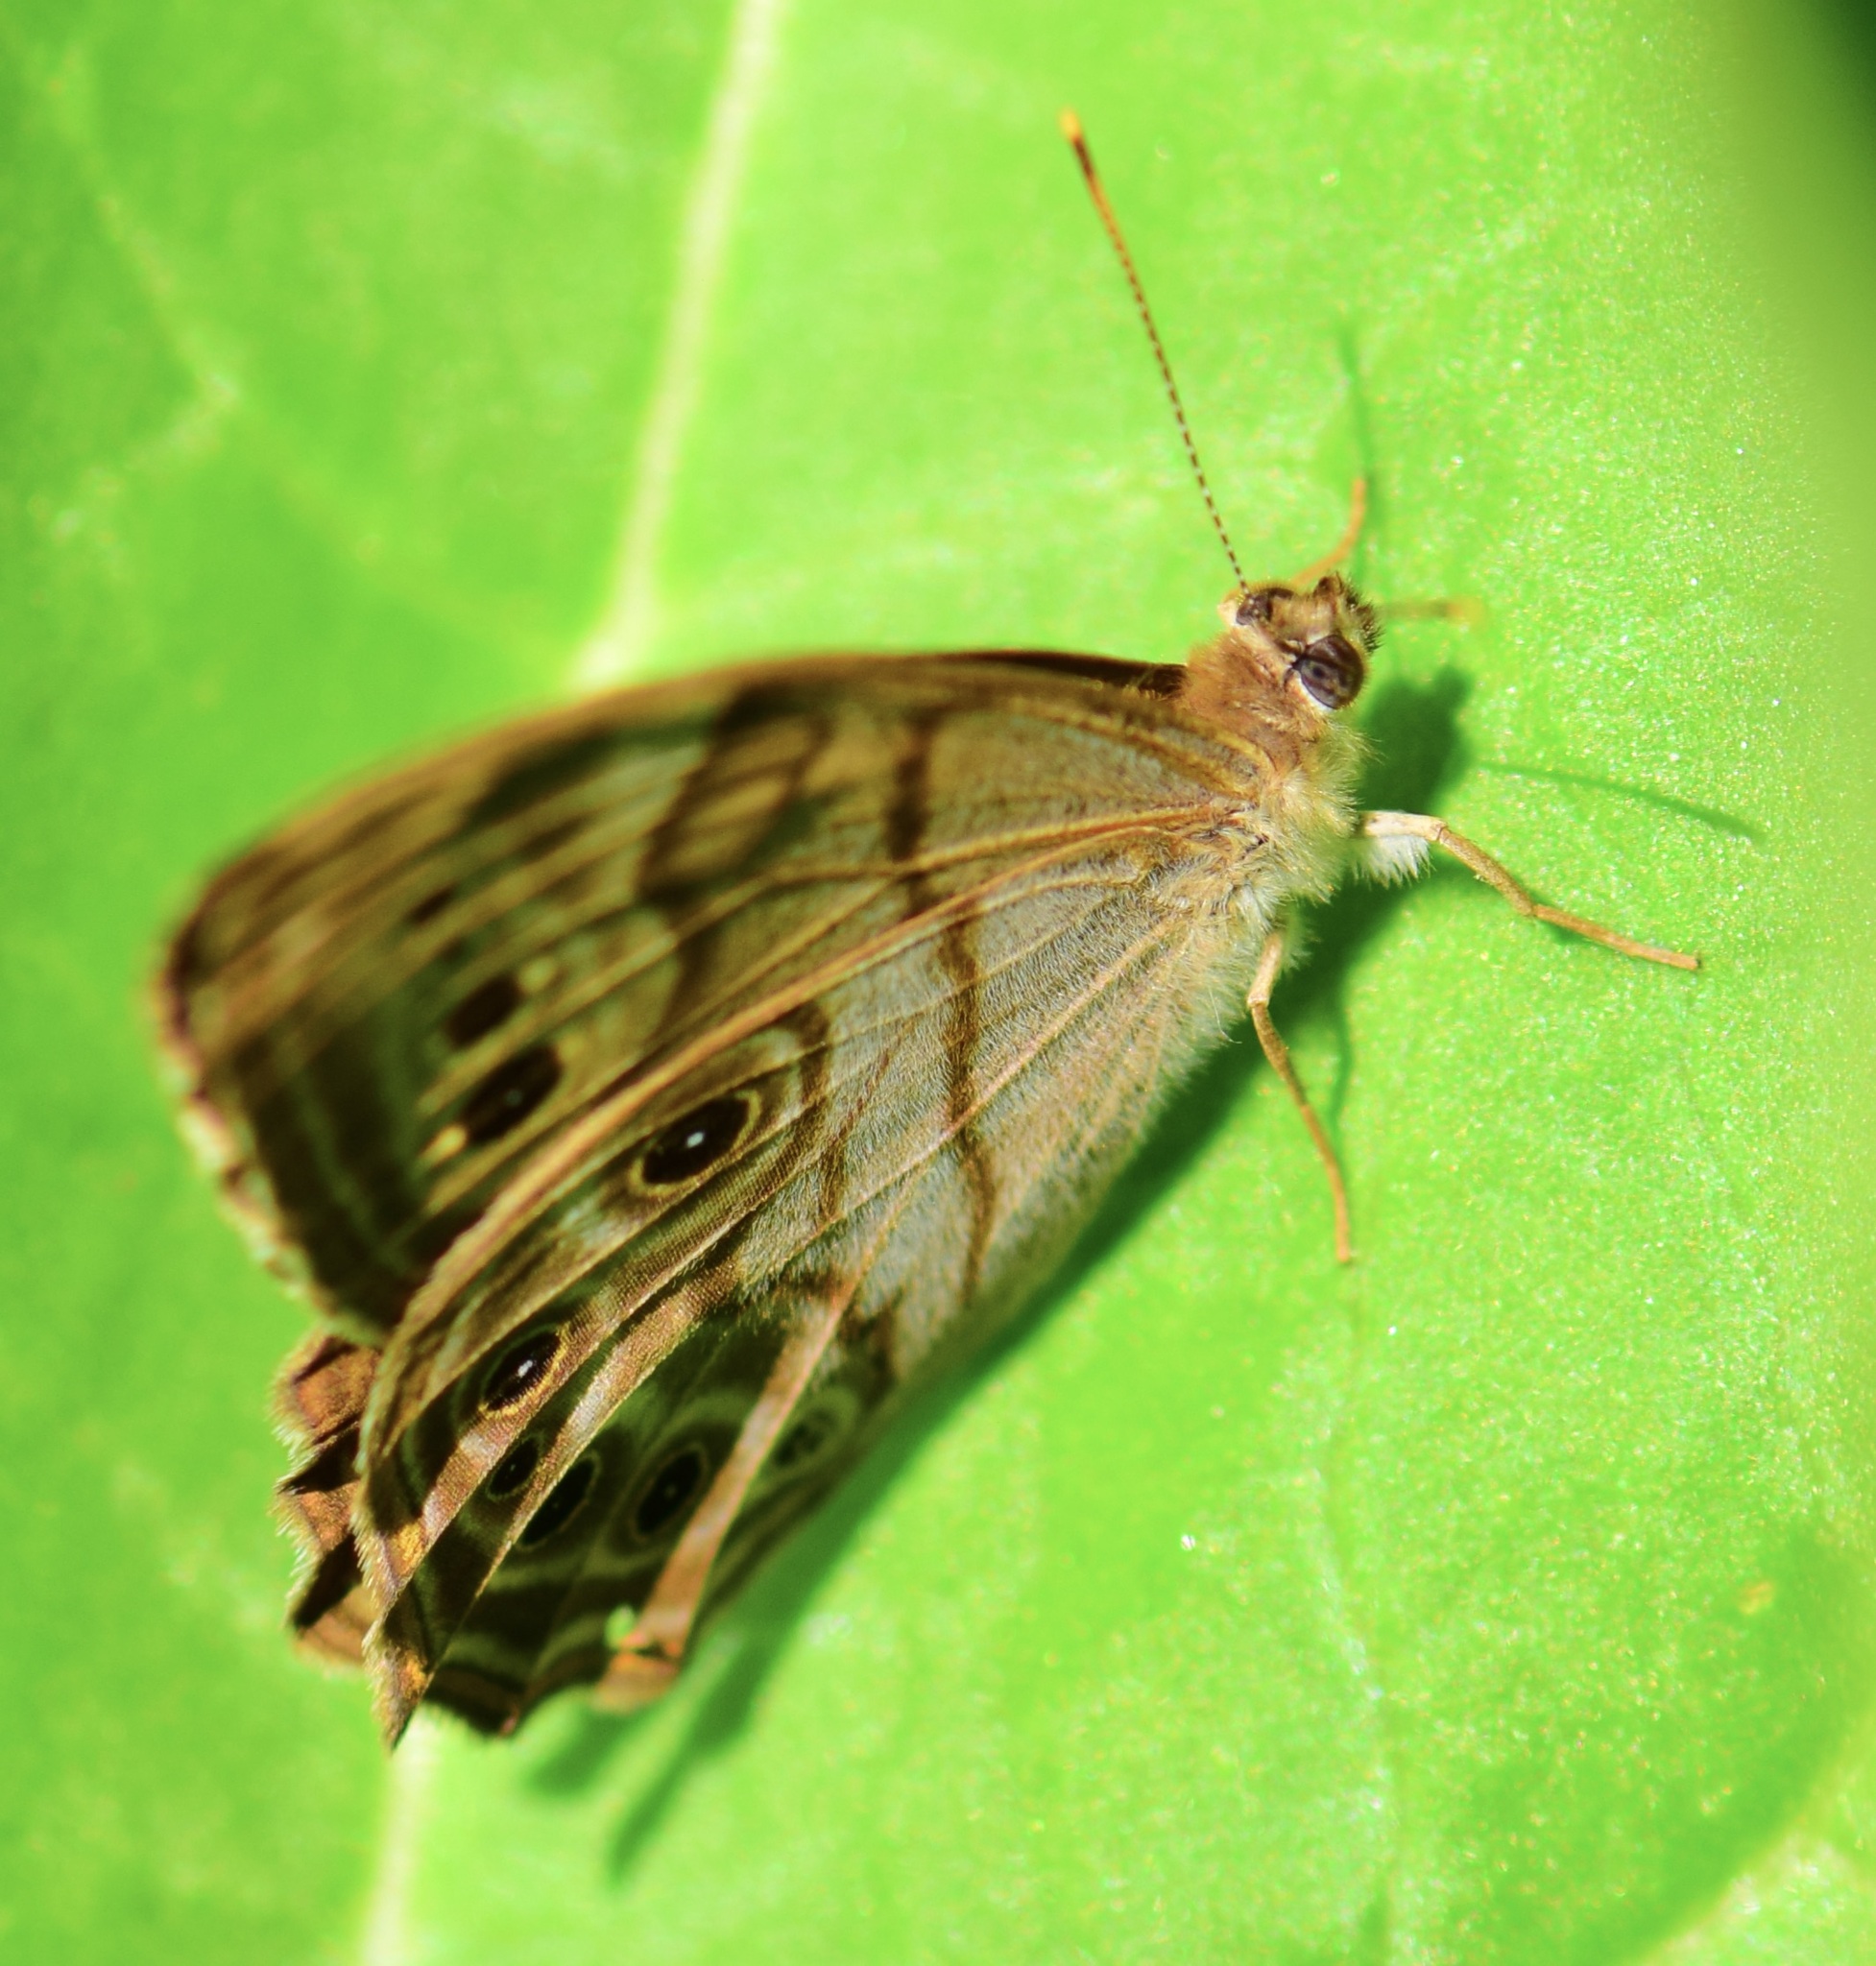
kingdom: Animalia
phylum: Arthropoda
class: Insecta
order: Lepidoptera
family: Nymphalidae
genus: Lethe
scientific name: Lethe anthedon
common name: Northern pearly-eye
